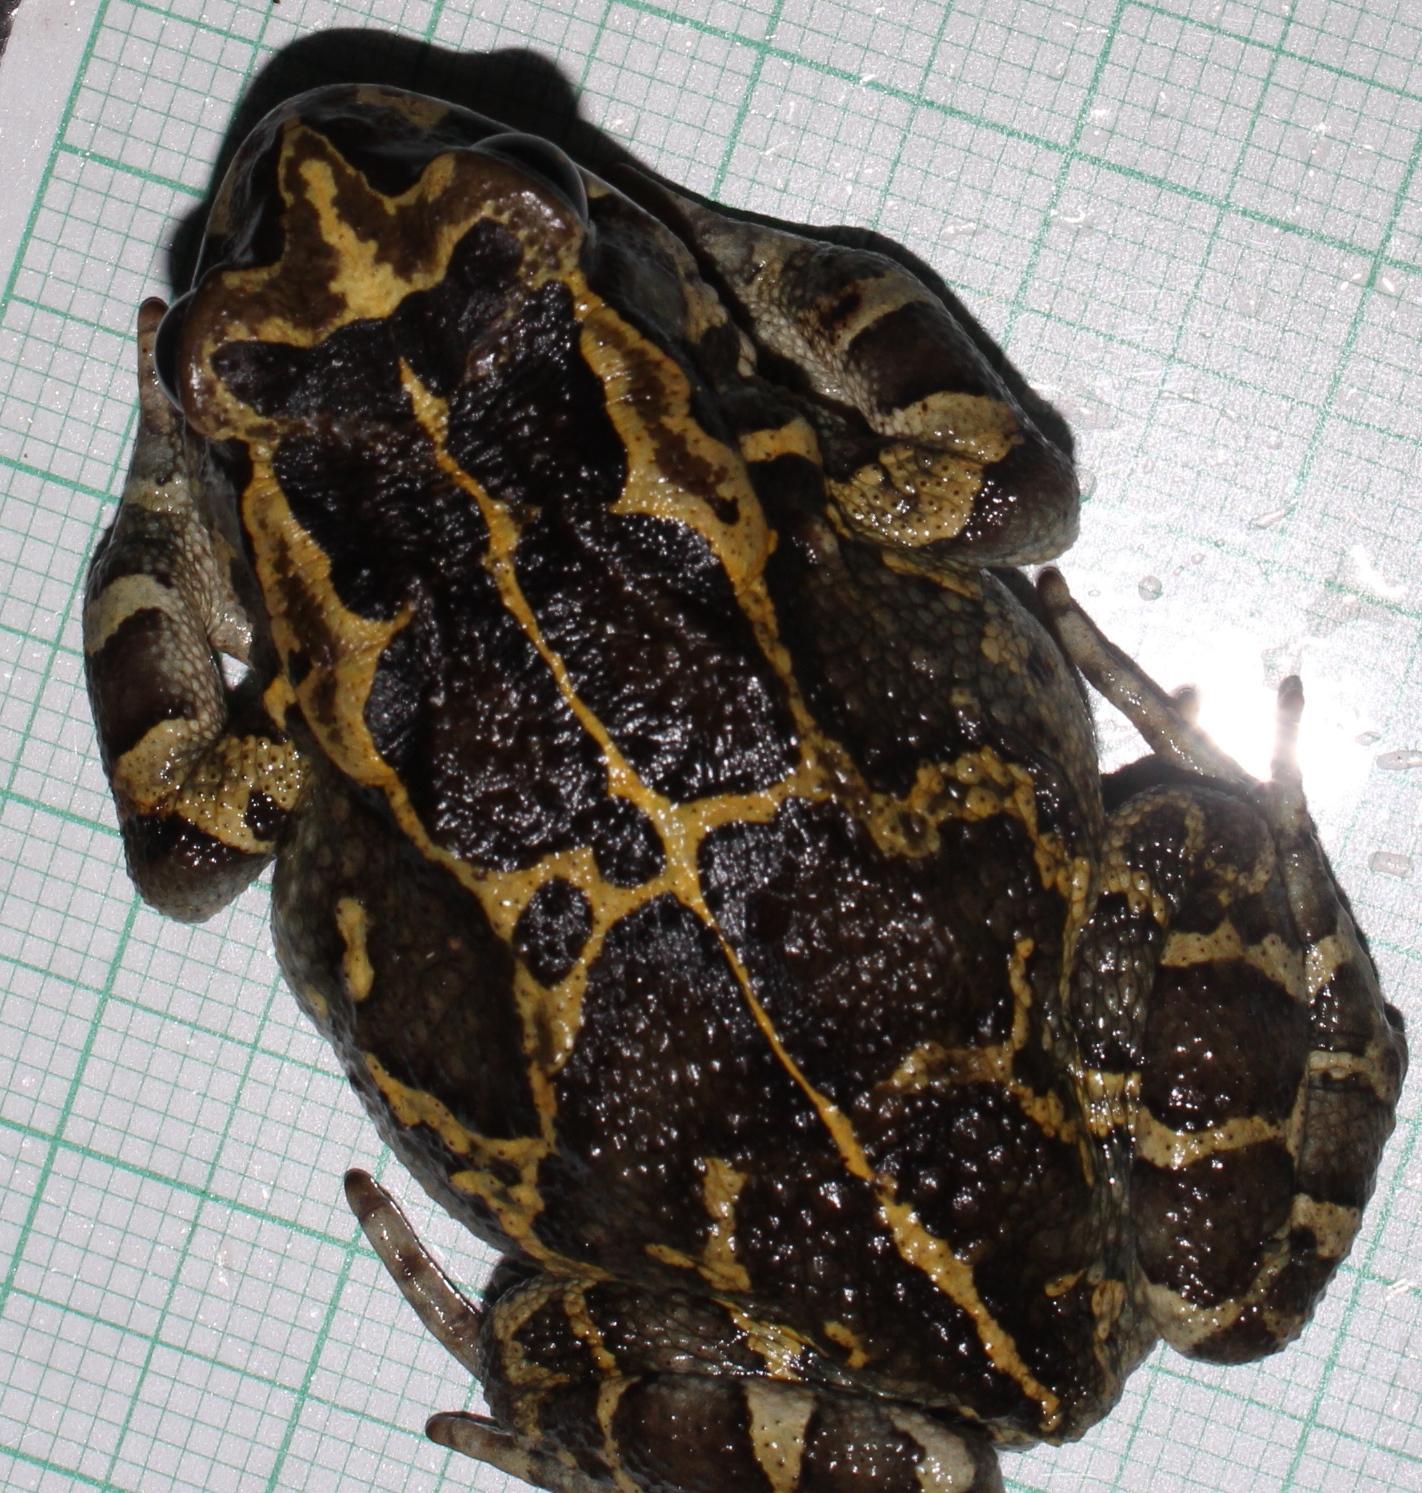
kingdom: Animalia
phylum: Chordata
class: Amphibia
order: Anura
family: Bufonidae
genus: Sclerophrys
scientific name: Sclerophrys pantherina
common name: Panther toad
